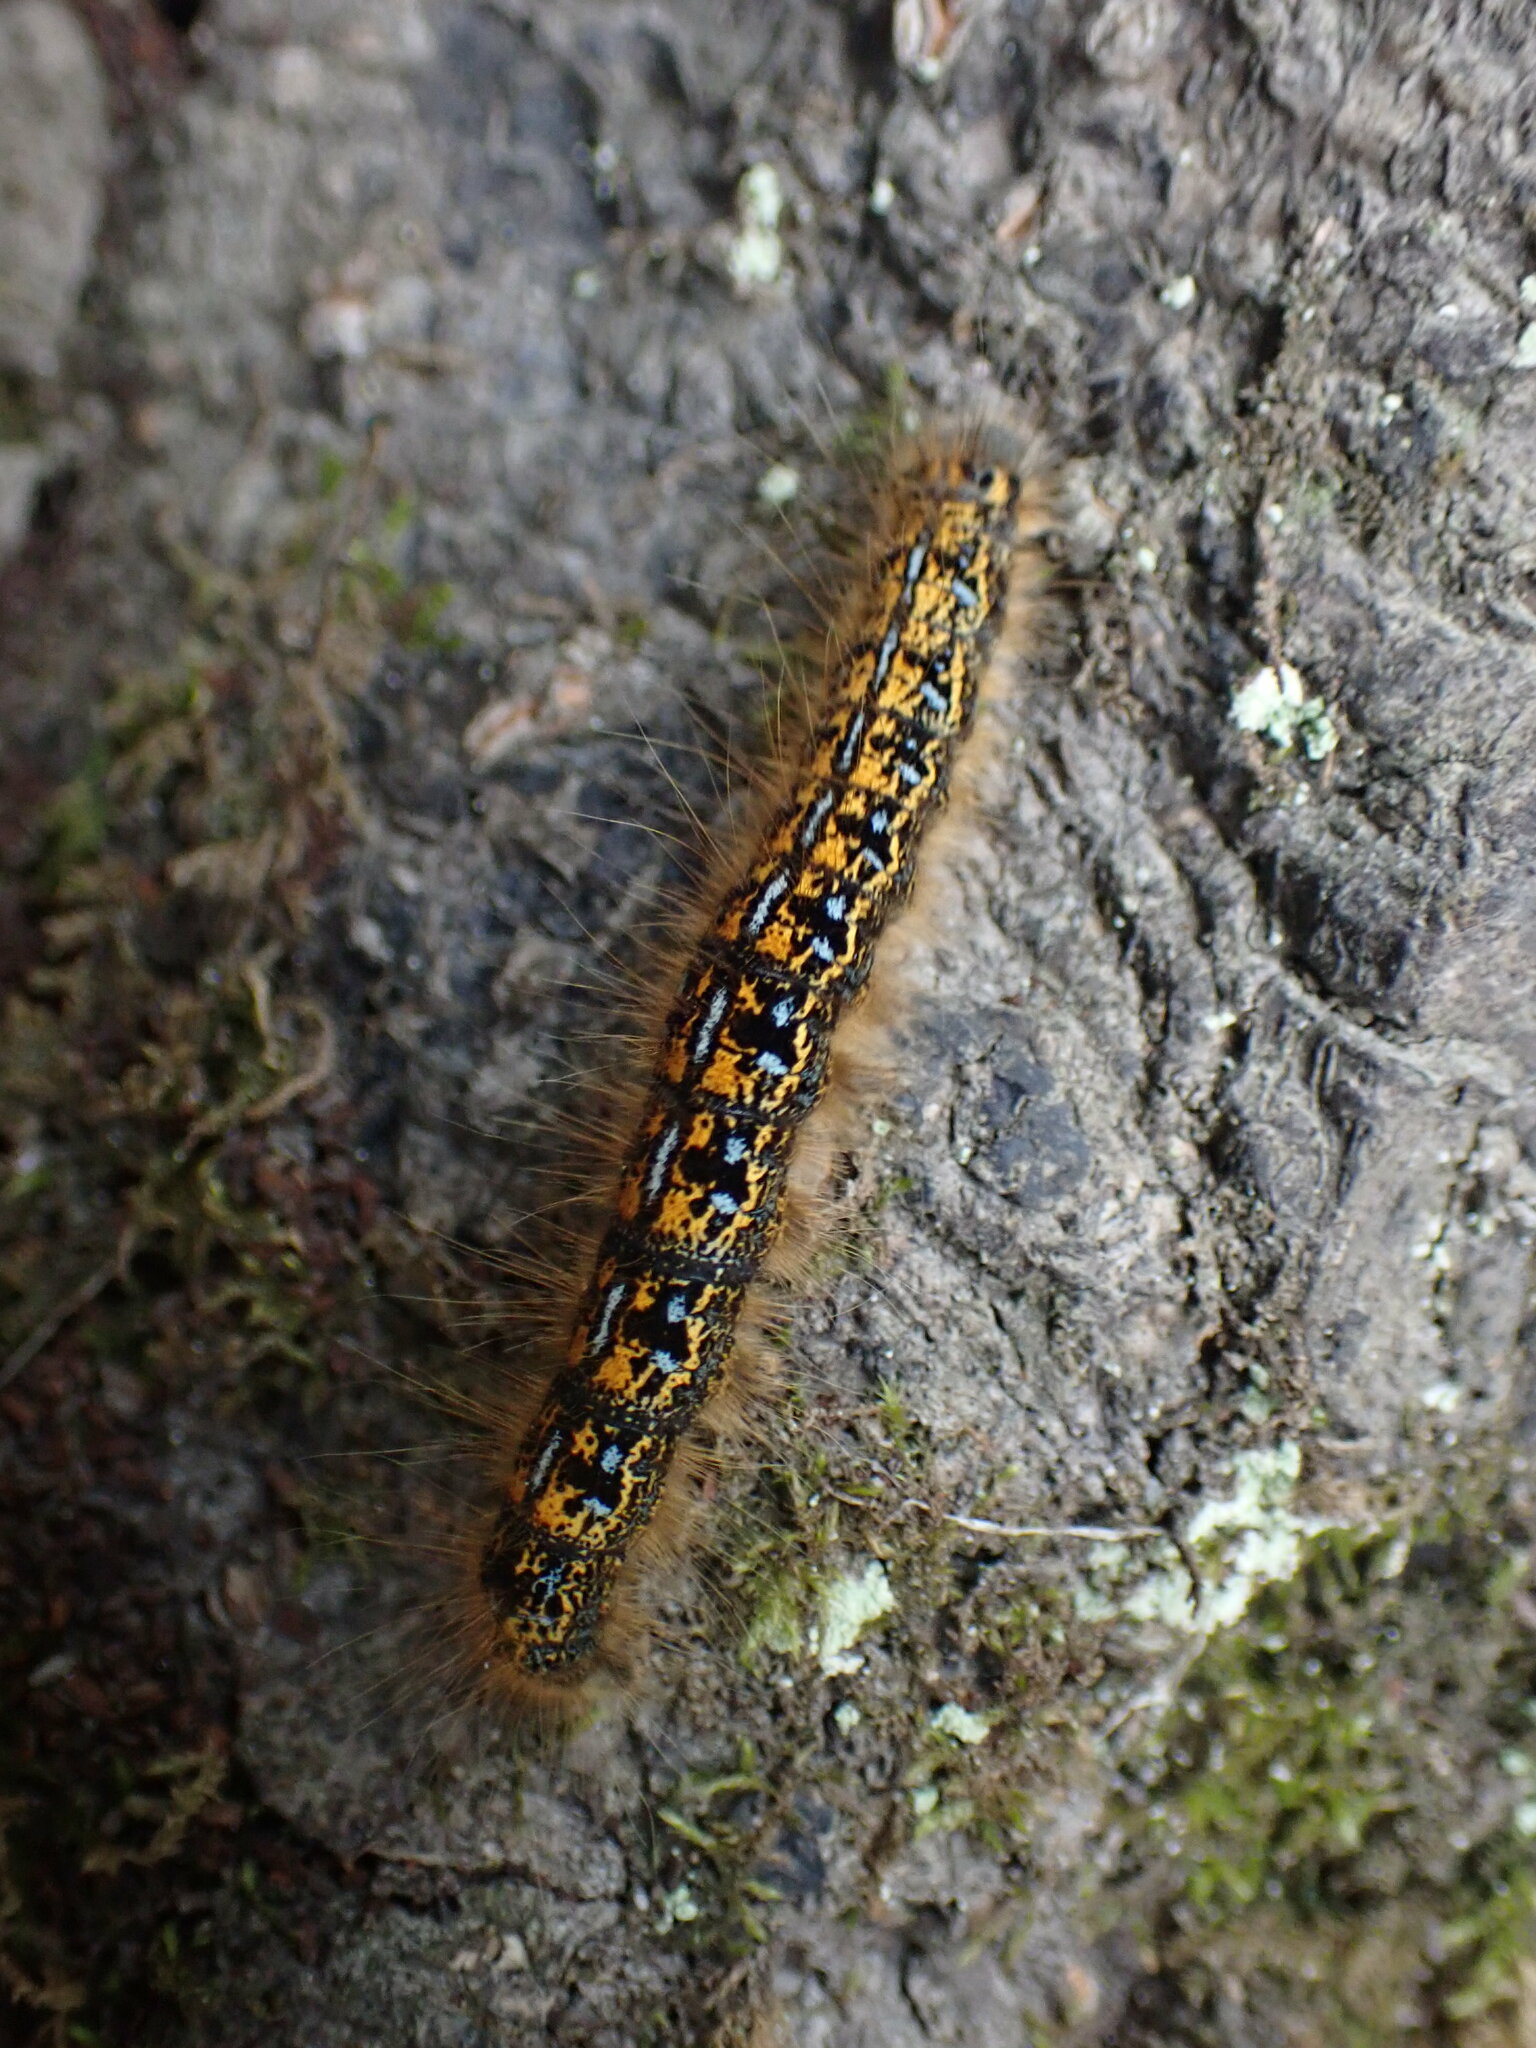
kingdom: Animalia
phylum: Arthropoda
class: Insecta
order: Lepidoptera
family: Lasiocampidae
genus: Malacosoma
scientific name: Malacosoma californica
